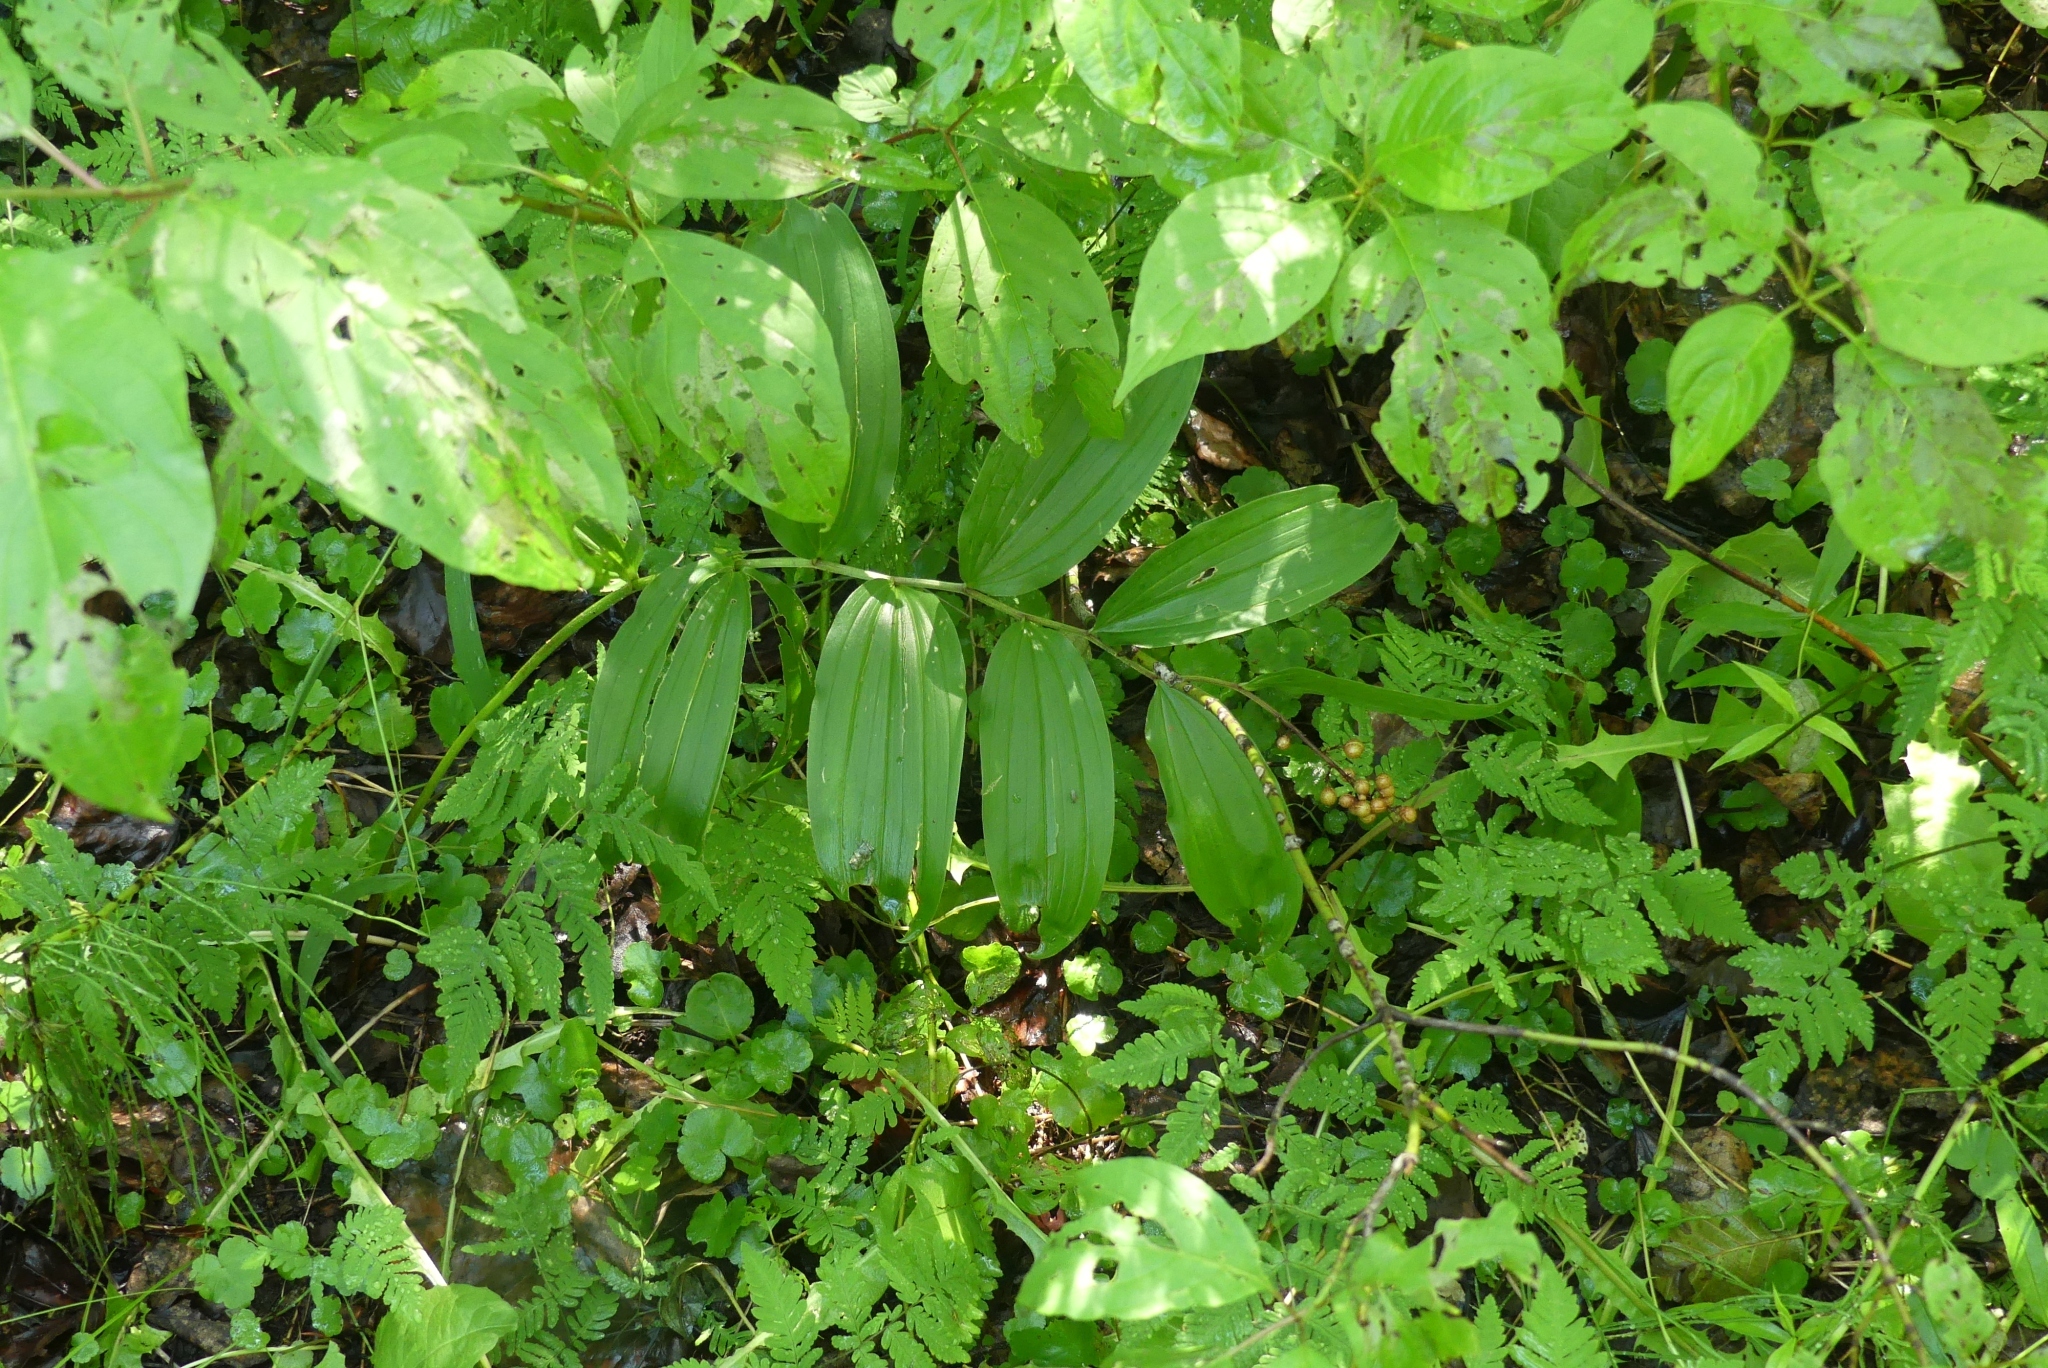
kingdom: Plantae
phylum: Tracheophyta
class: Liliopsida
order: Asparagales
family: Asparagaceae
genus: Maianthemum
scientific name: Maianthemum racemosum
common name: False spikenard
